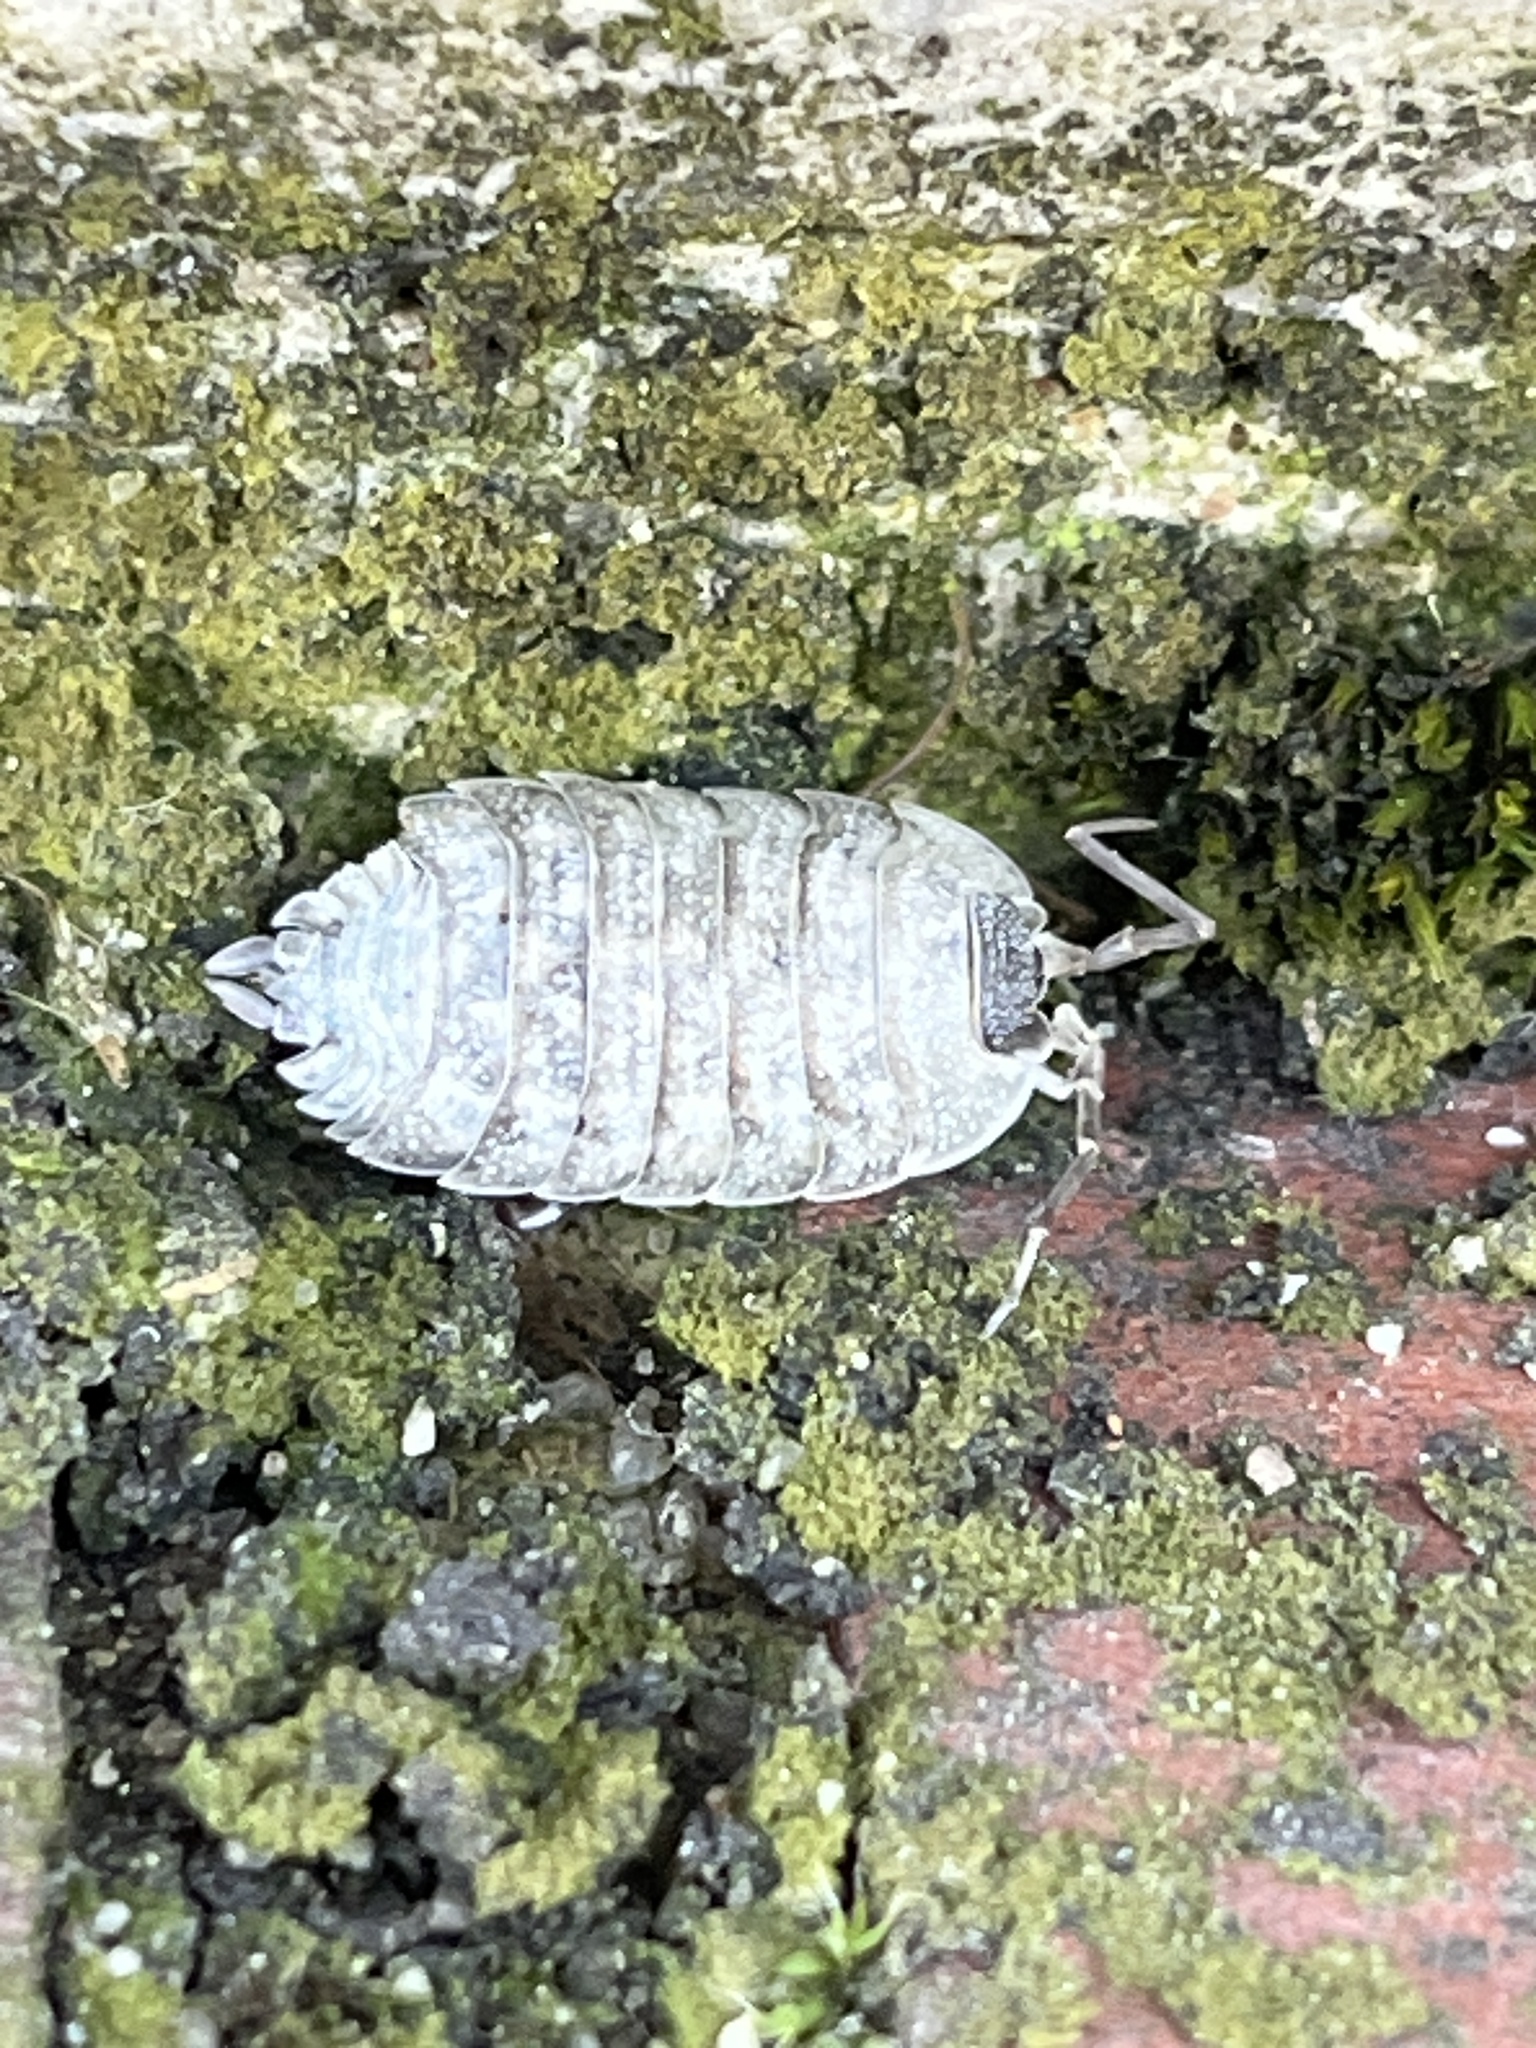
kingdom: Animalia
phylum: Arthropoda
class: Malacostraca
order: Isopoda
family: Porcellionidae
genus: Porcellio
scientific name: Porcellio spinicornis
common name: Painted woodlouse
